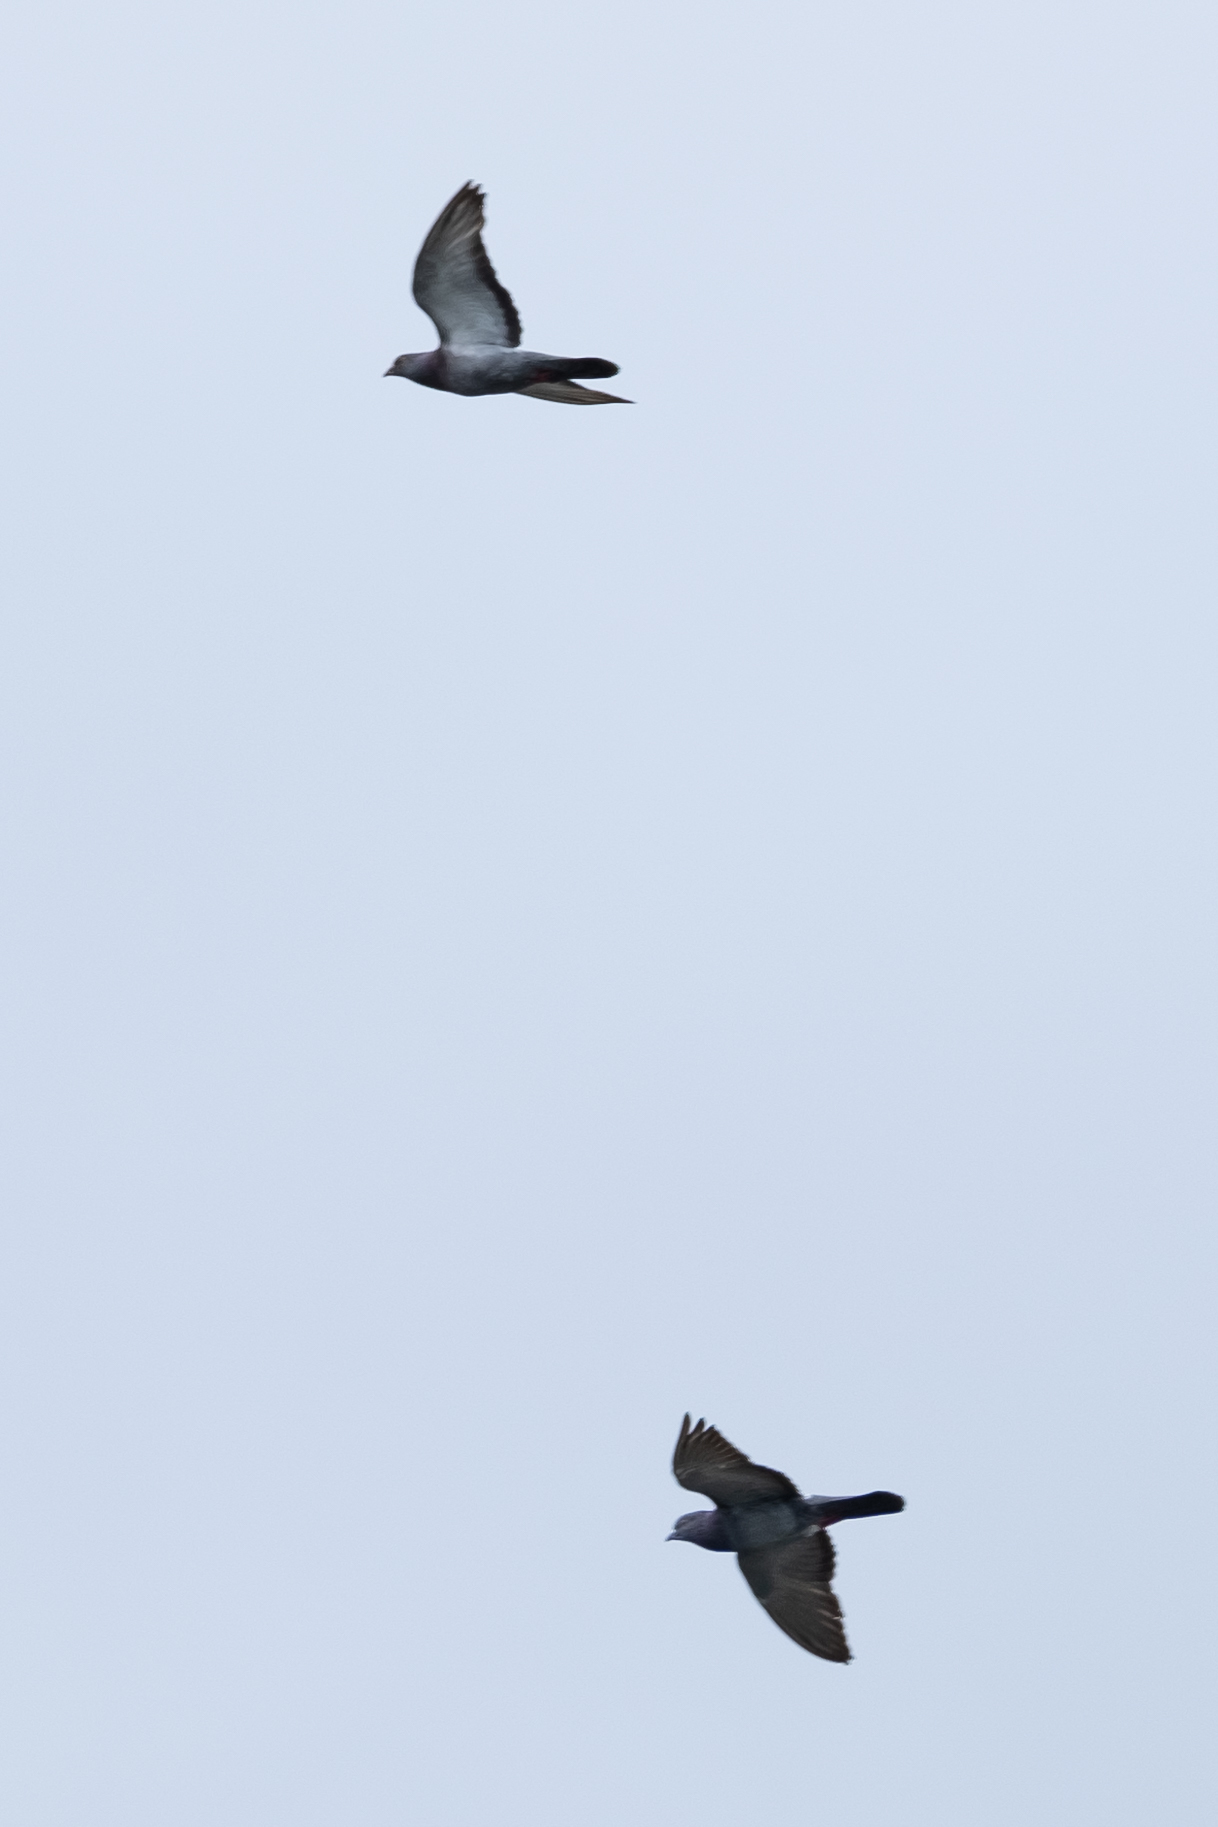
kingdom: Animalia
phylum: Chordata
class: Aves
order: Columbiformes
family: Columbidae
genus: Columba
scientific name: Columba livia
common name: Rock pigeon
